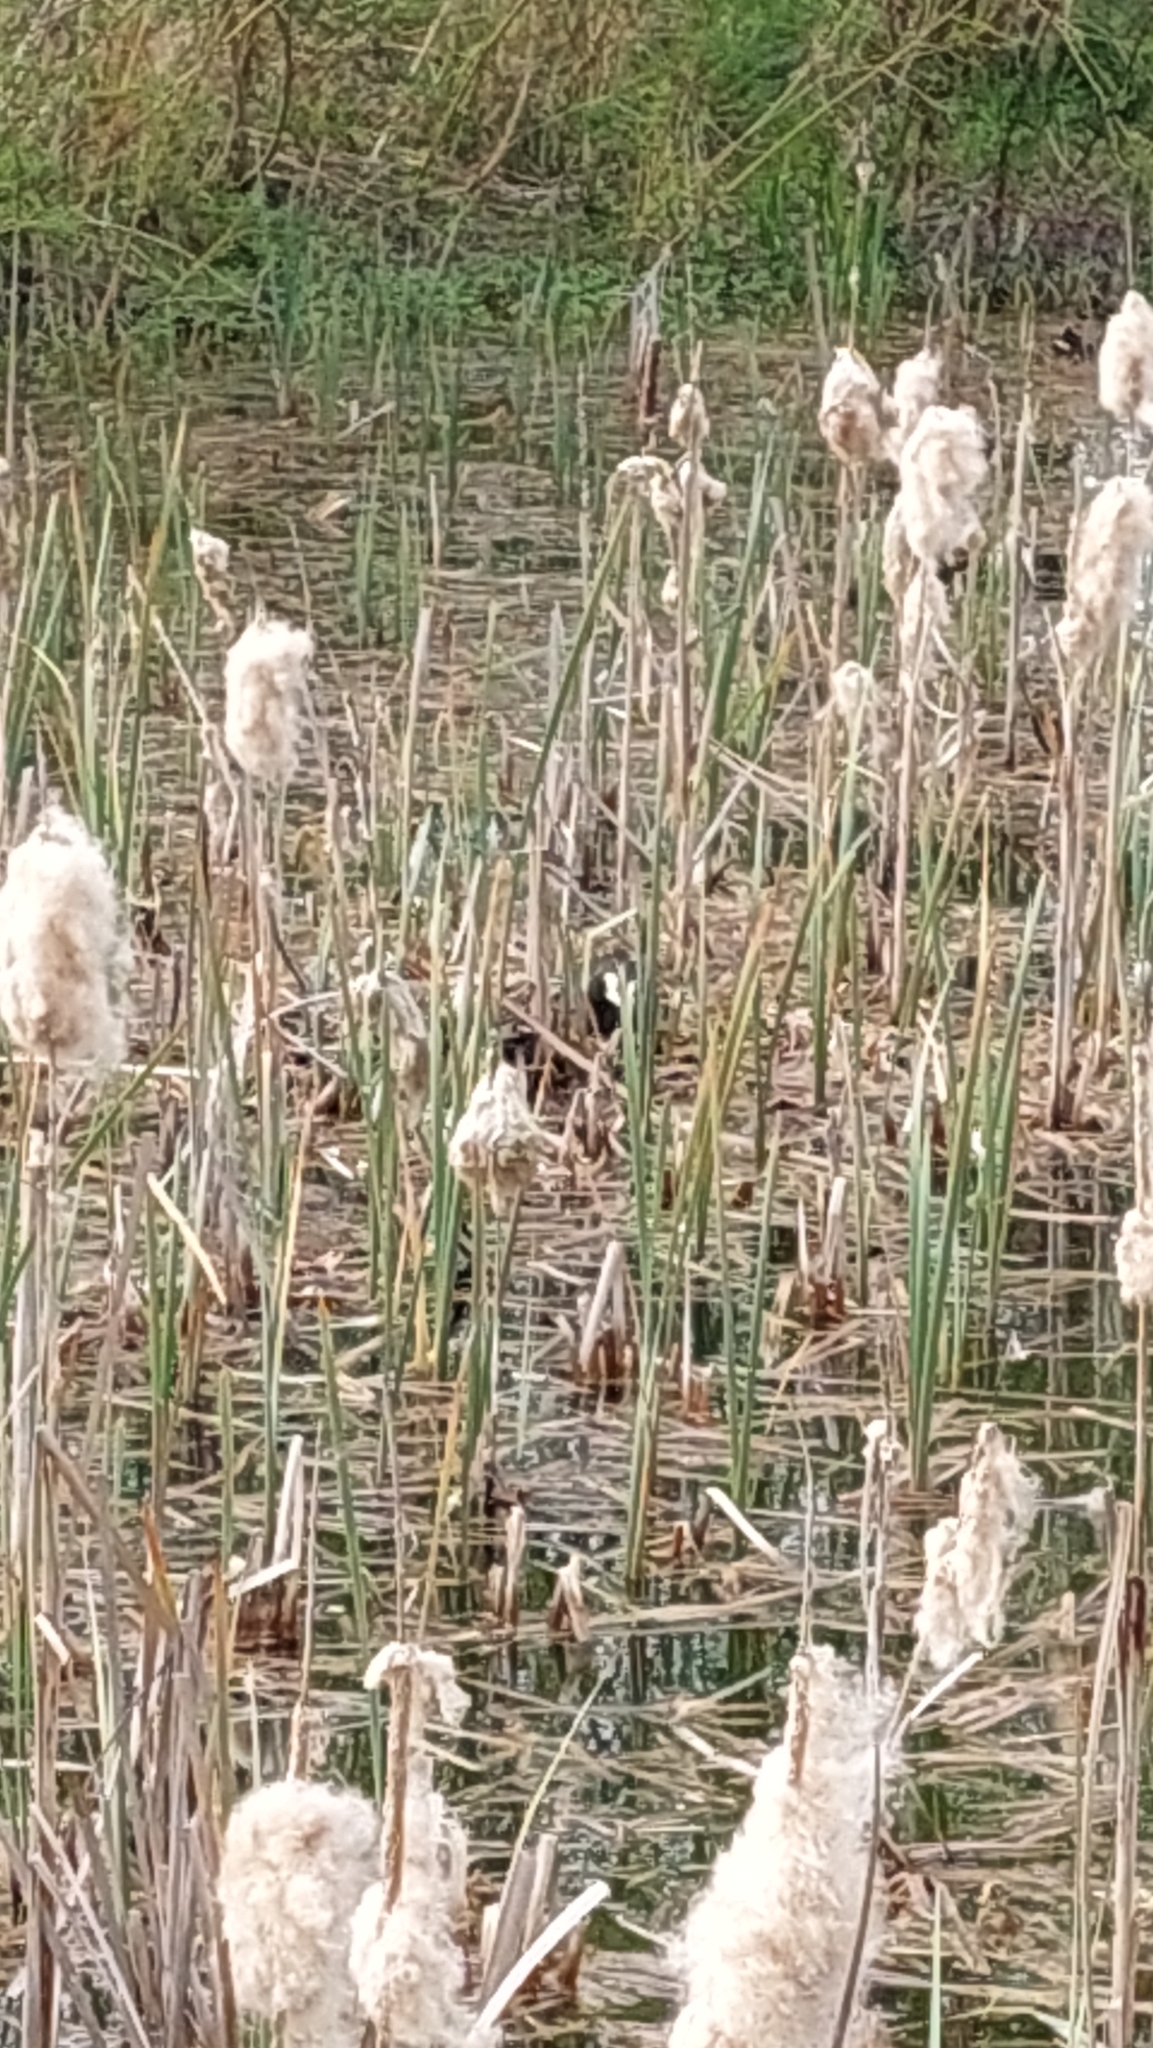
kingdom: Animalia
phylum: Chordata
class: Aves
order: Gruiformes
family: Rallidae
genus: Fulica
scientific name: Fulica atra
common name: Eurasian coot
